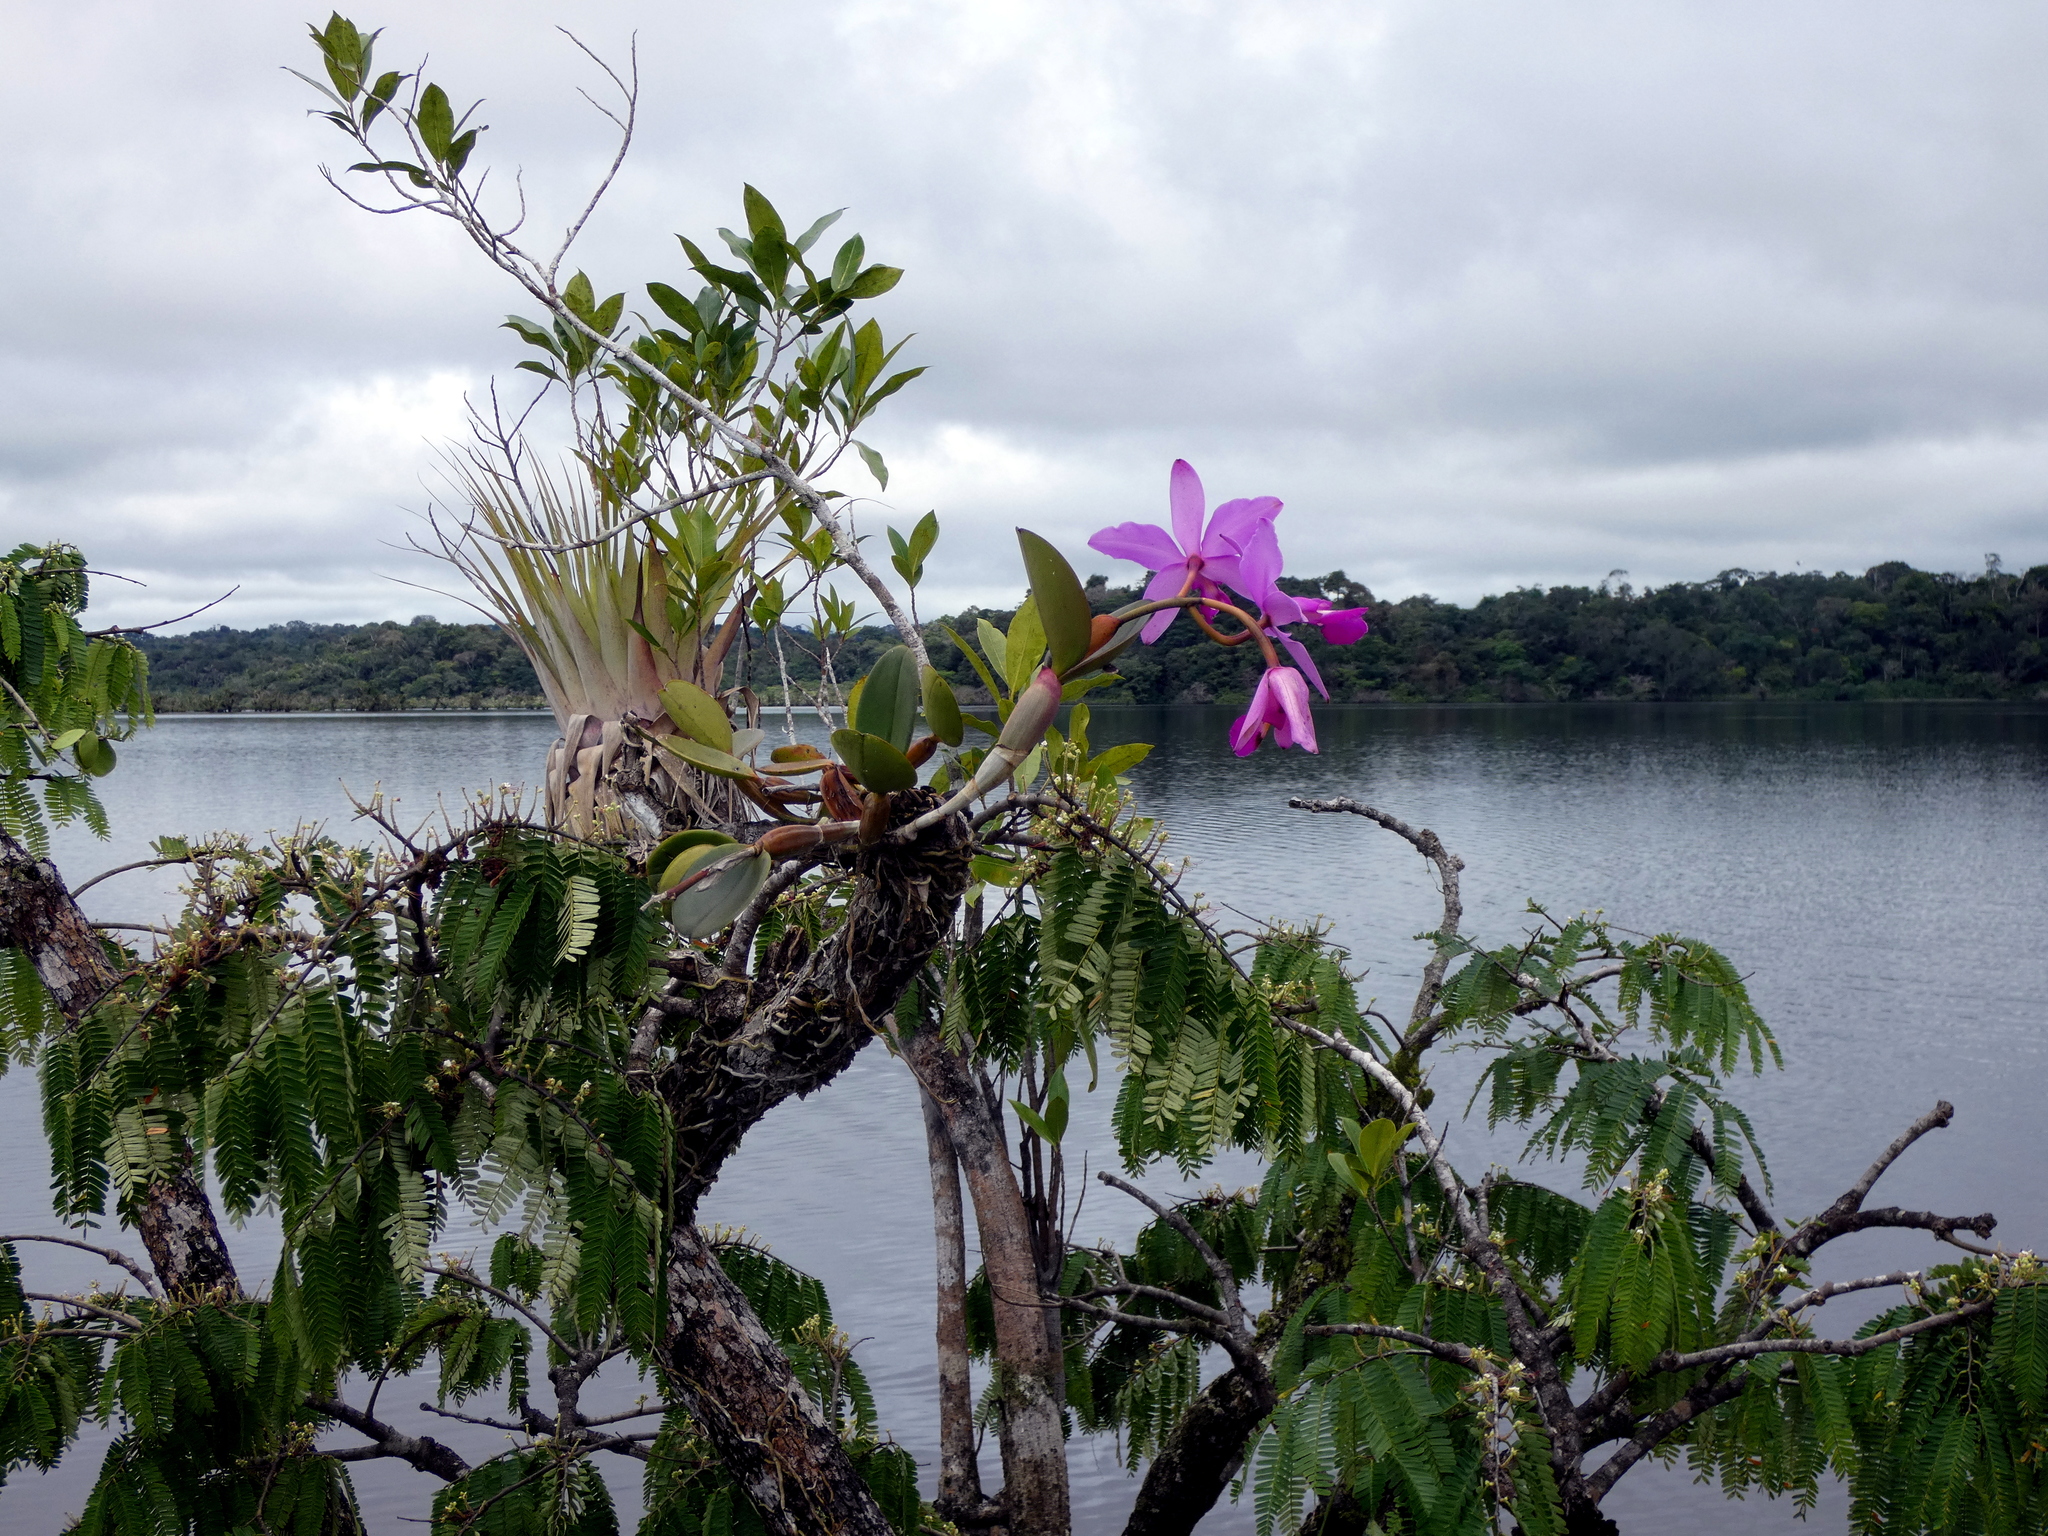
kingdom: Plantae
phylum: Tracheophyta
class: Liliopsida
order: Asparagales
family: Orchidaceae
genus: Cattleya
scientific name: Cattleya violacea
